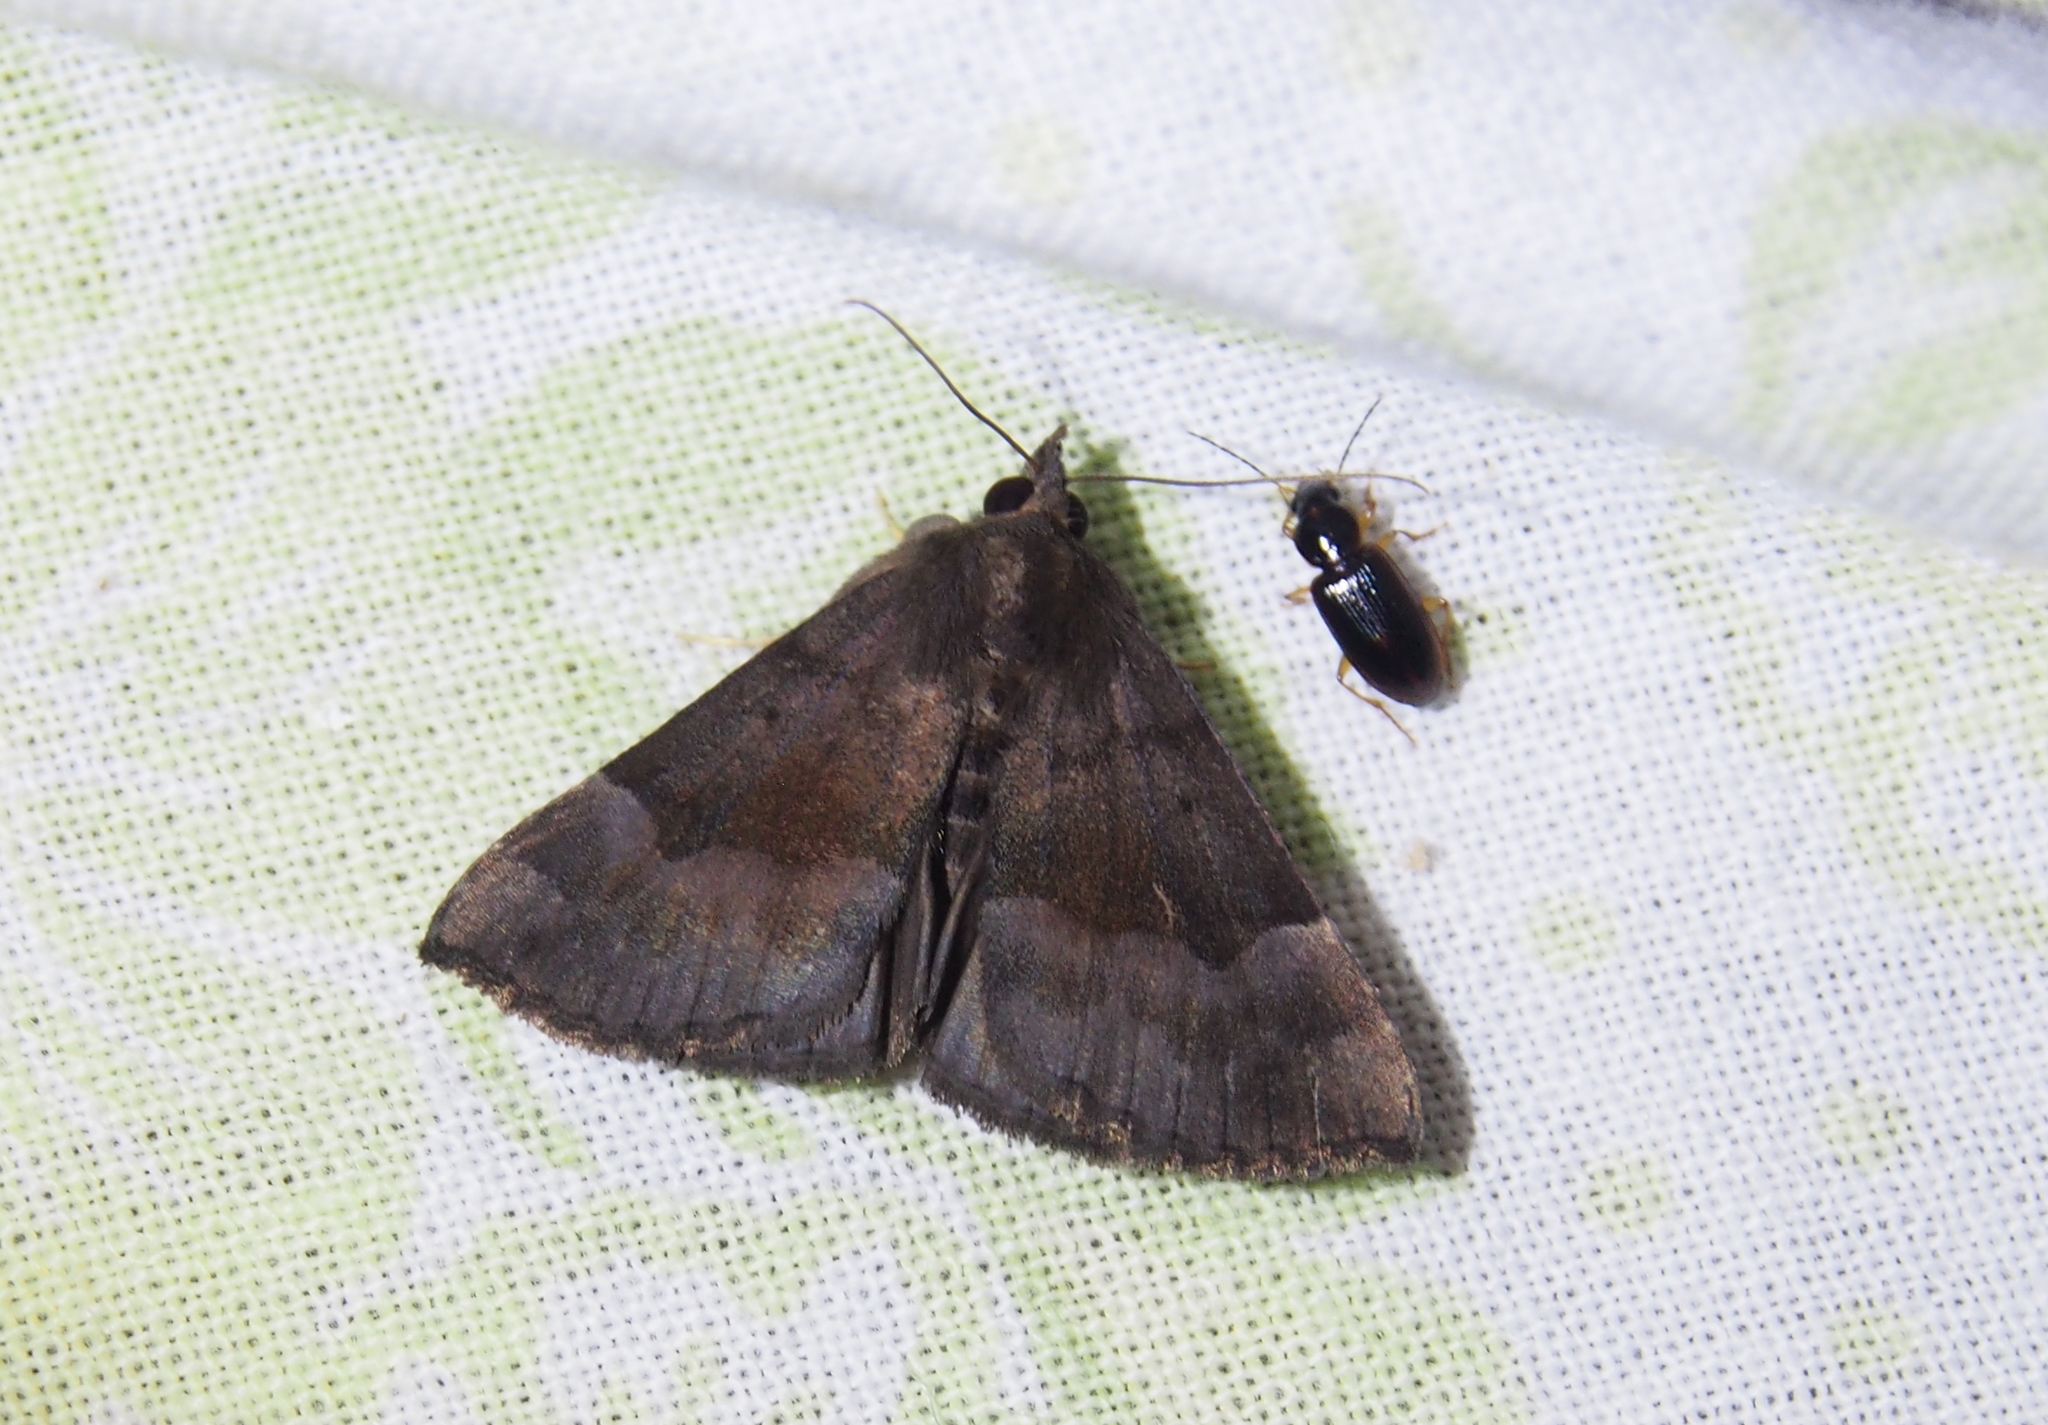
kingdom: Animalia
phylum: Arthropoda
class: Insecta
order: Lepidoptera
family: Erebidae
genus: Hypena
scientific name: Hypena madefactalis
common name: Gray-edged snout
